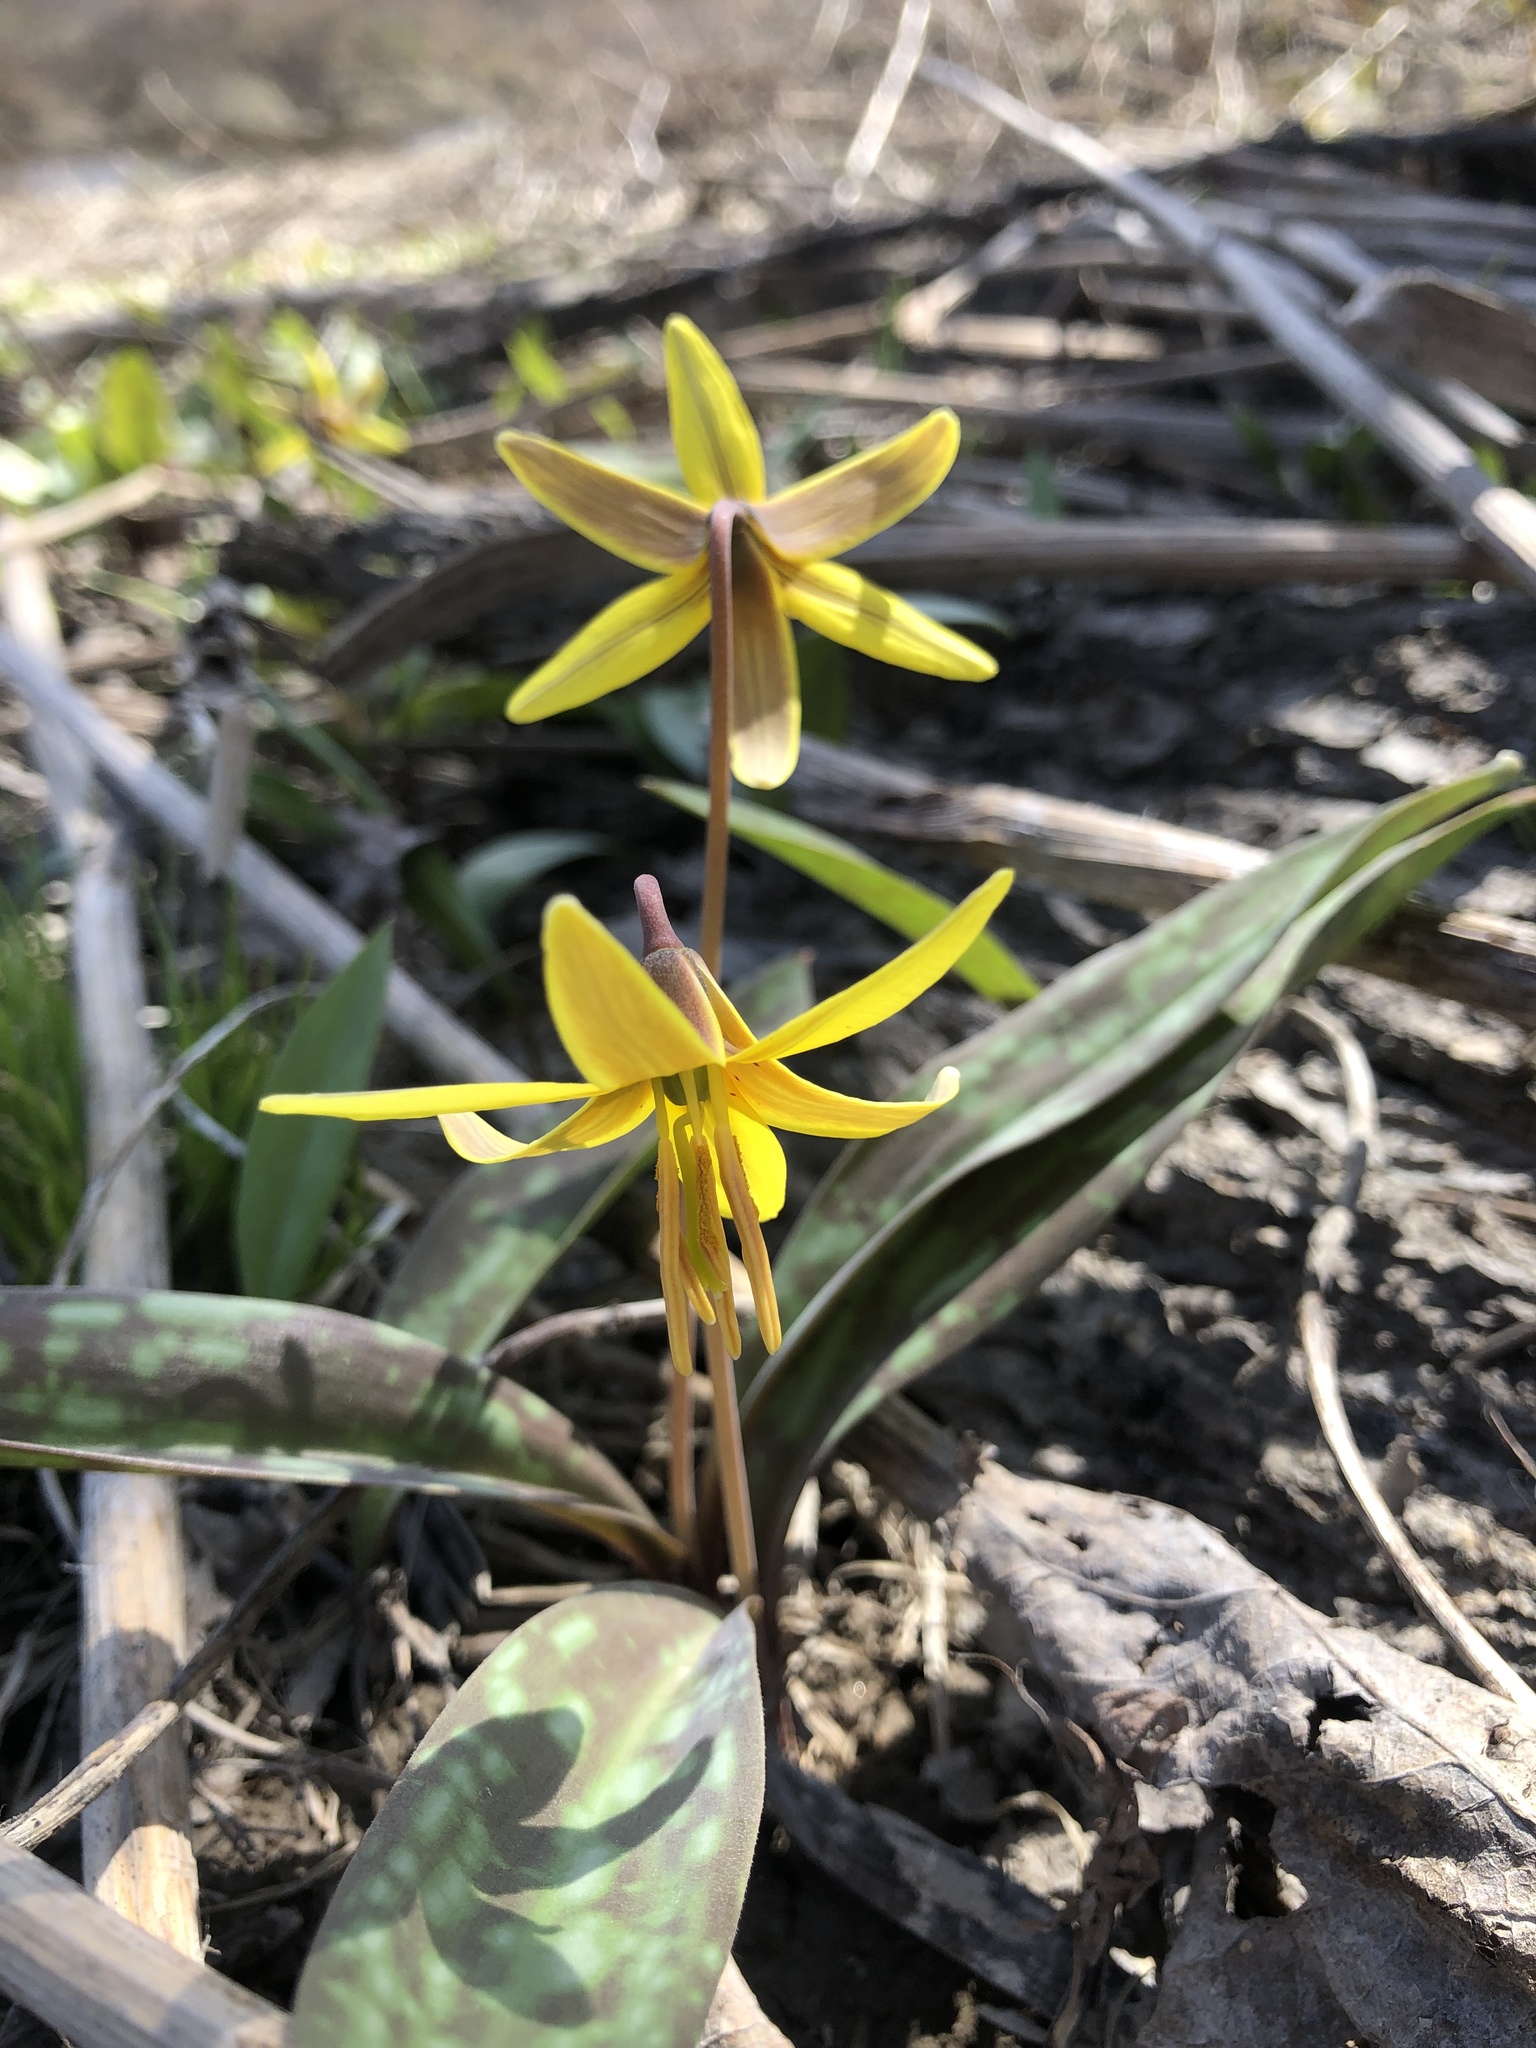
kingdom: Plantae
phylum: Tracheophyta
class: Liliopsida
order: Liliales
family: Liliaceae
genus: Erythronium
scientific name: Erythronium americanum
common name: Yellow adder's-tongue
